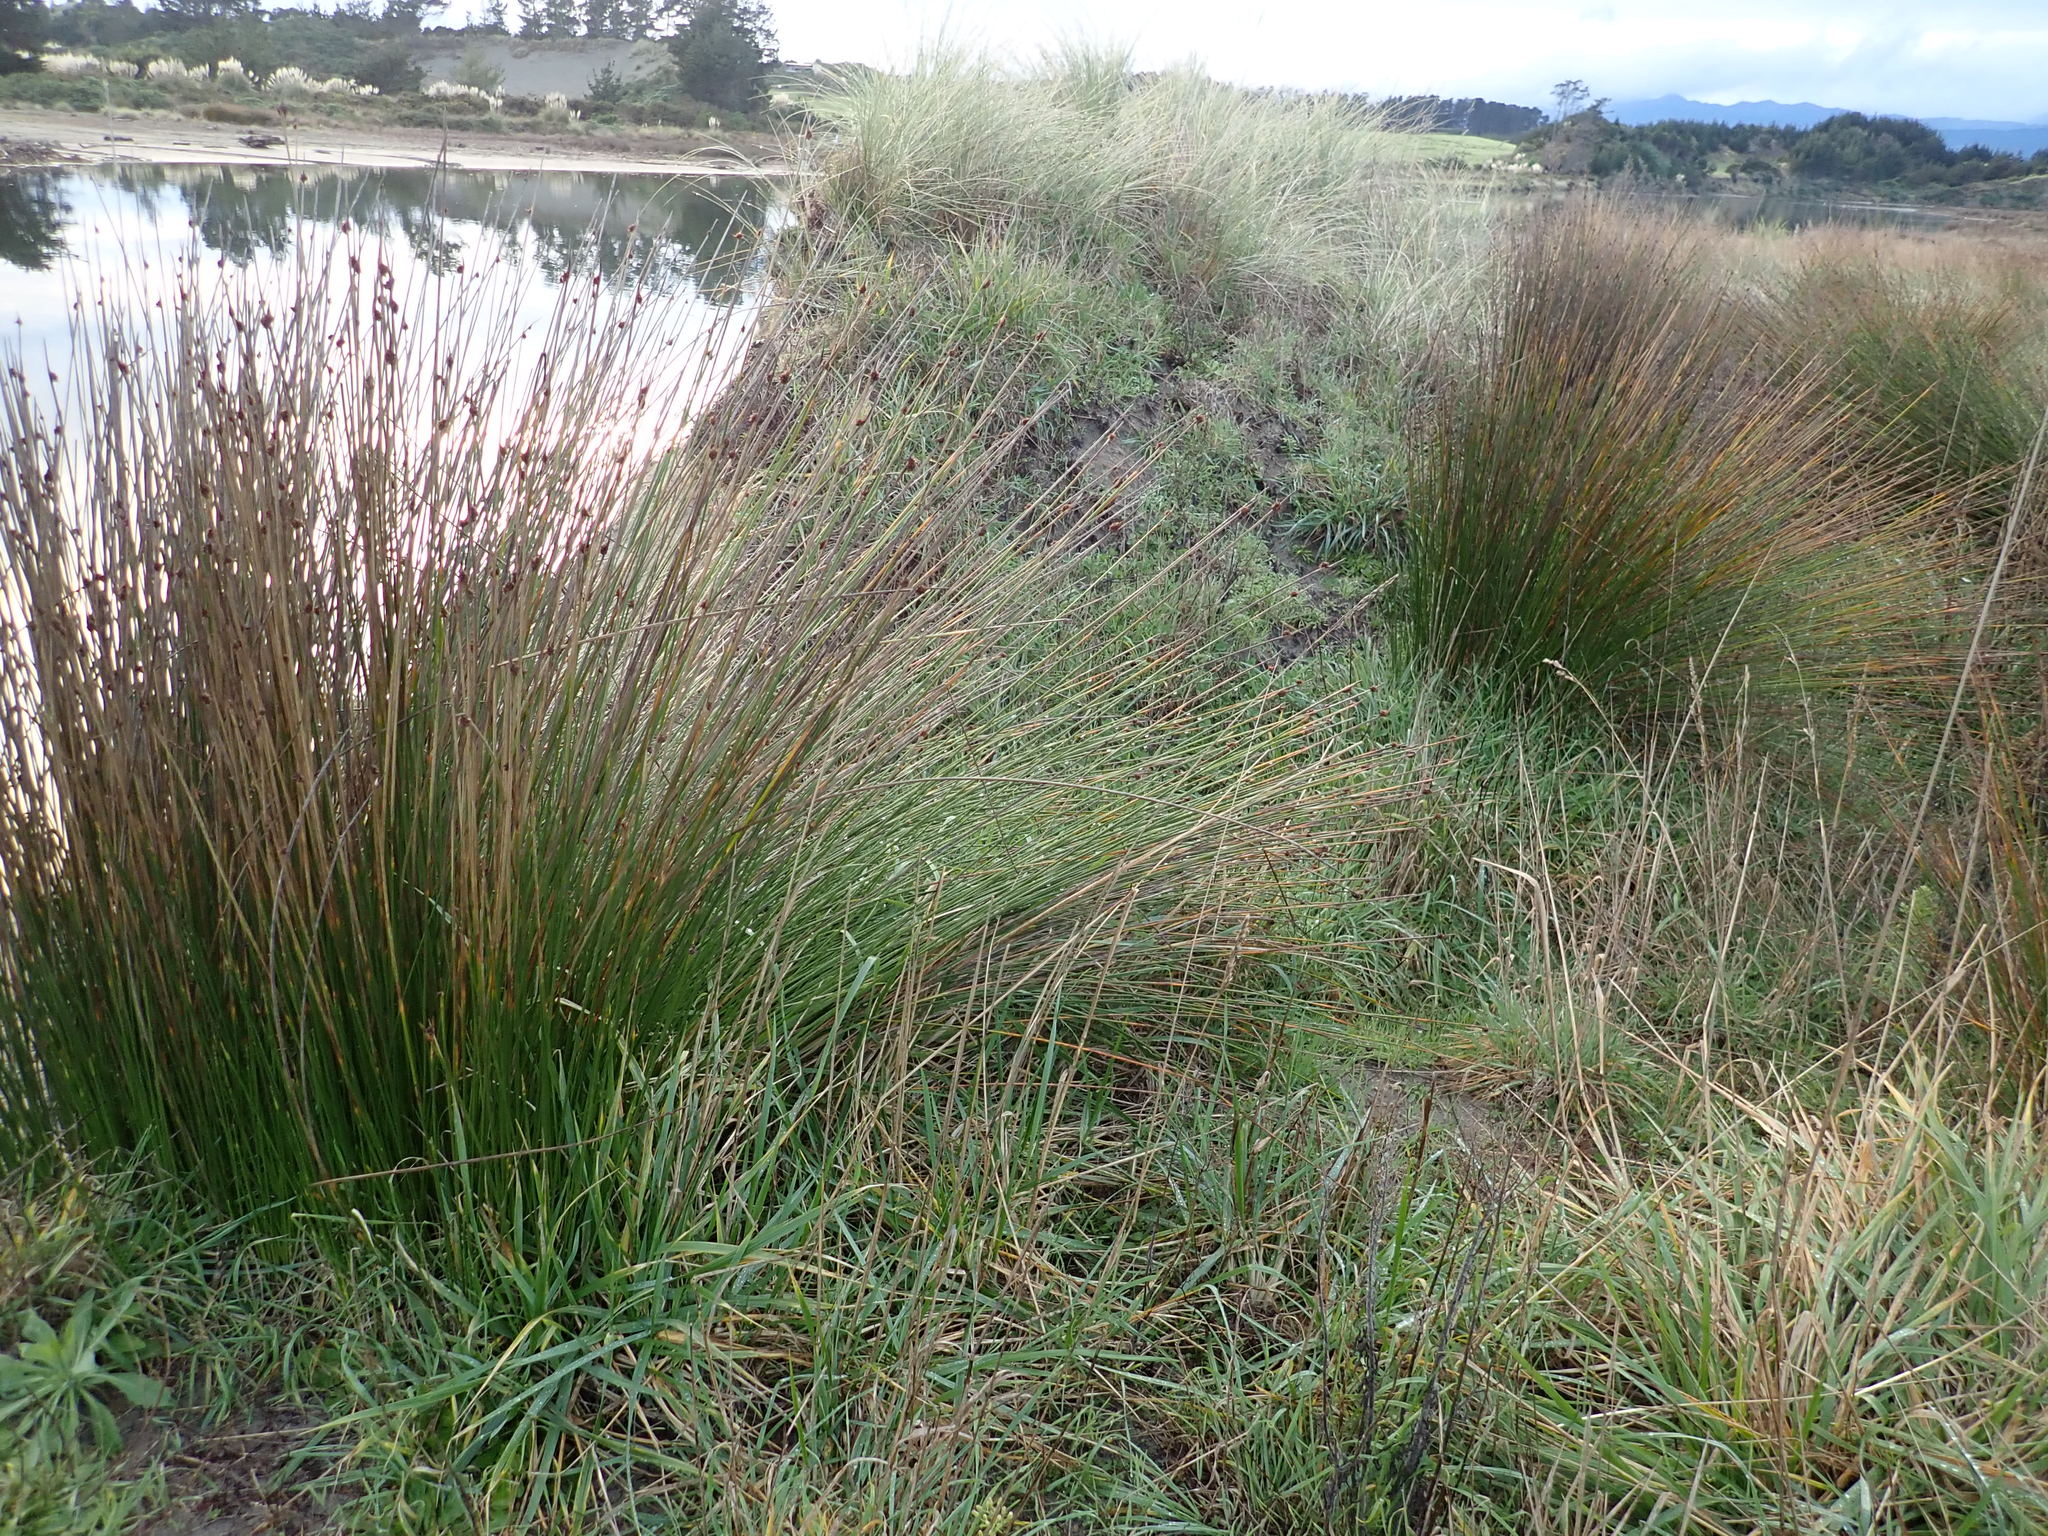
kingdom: Plantae
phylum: Tracheophyta
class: Liliopsida
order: Poales
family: Cyperaceae
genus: Ficinia
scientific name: Ficinia nodosa
